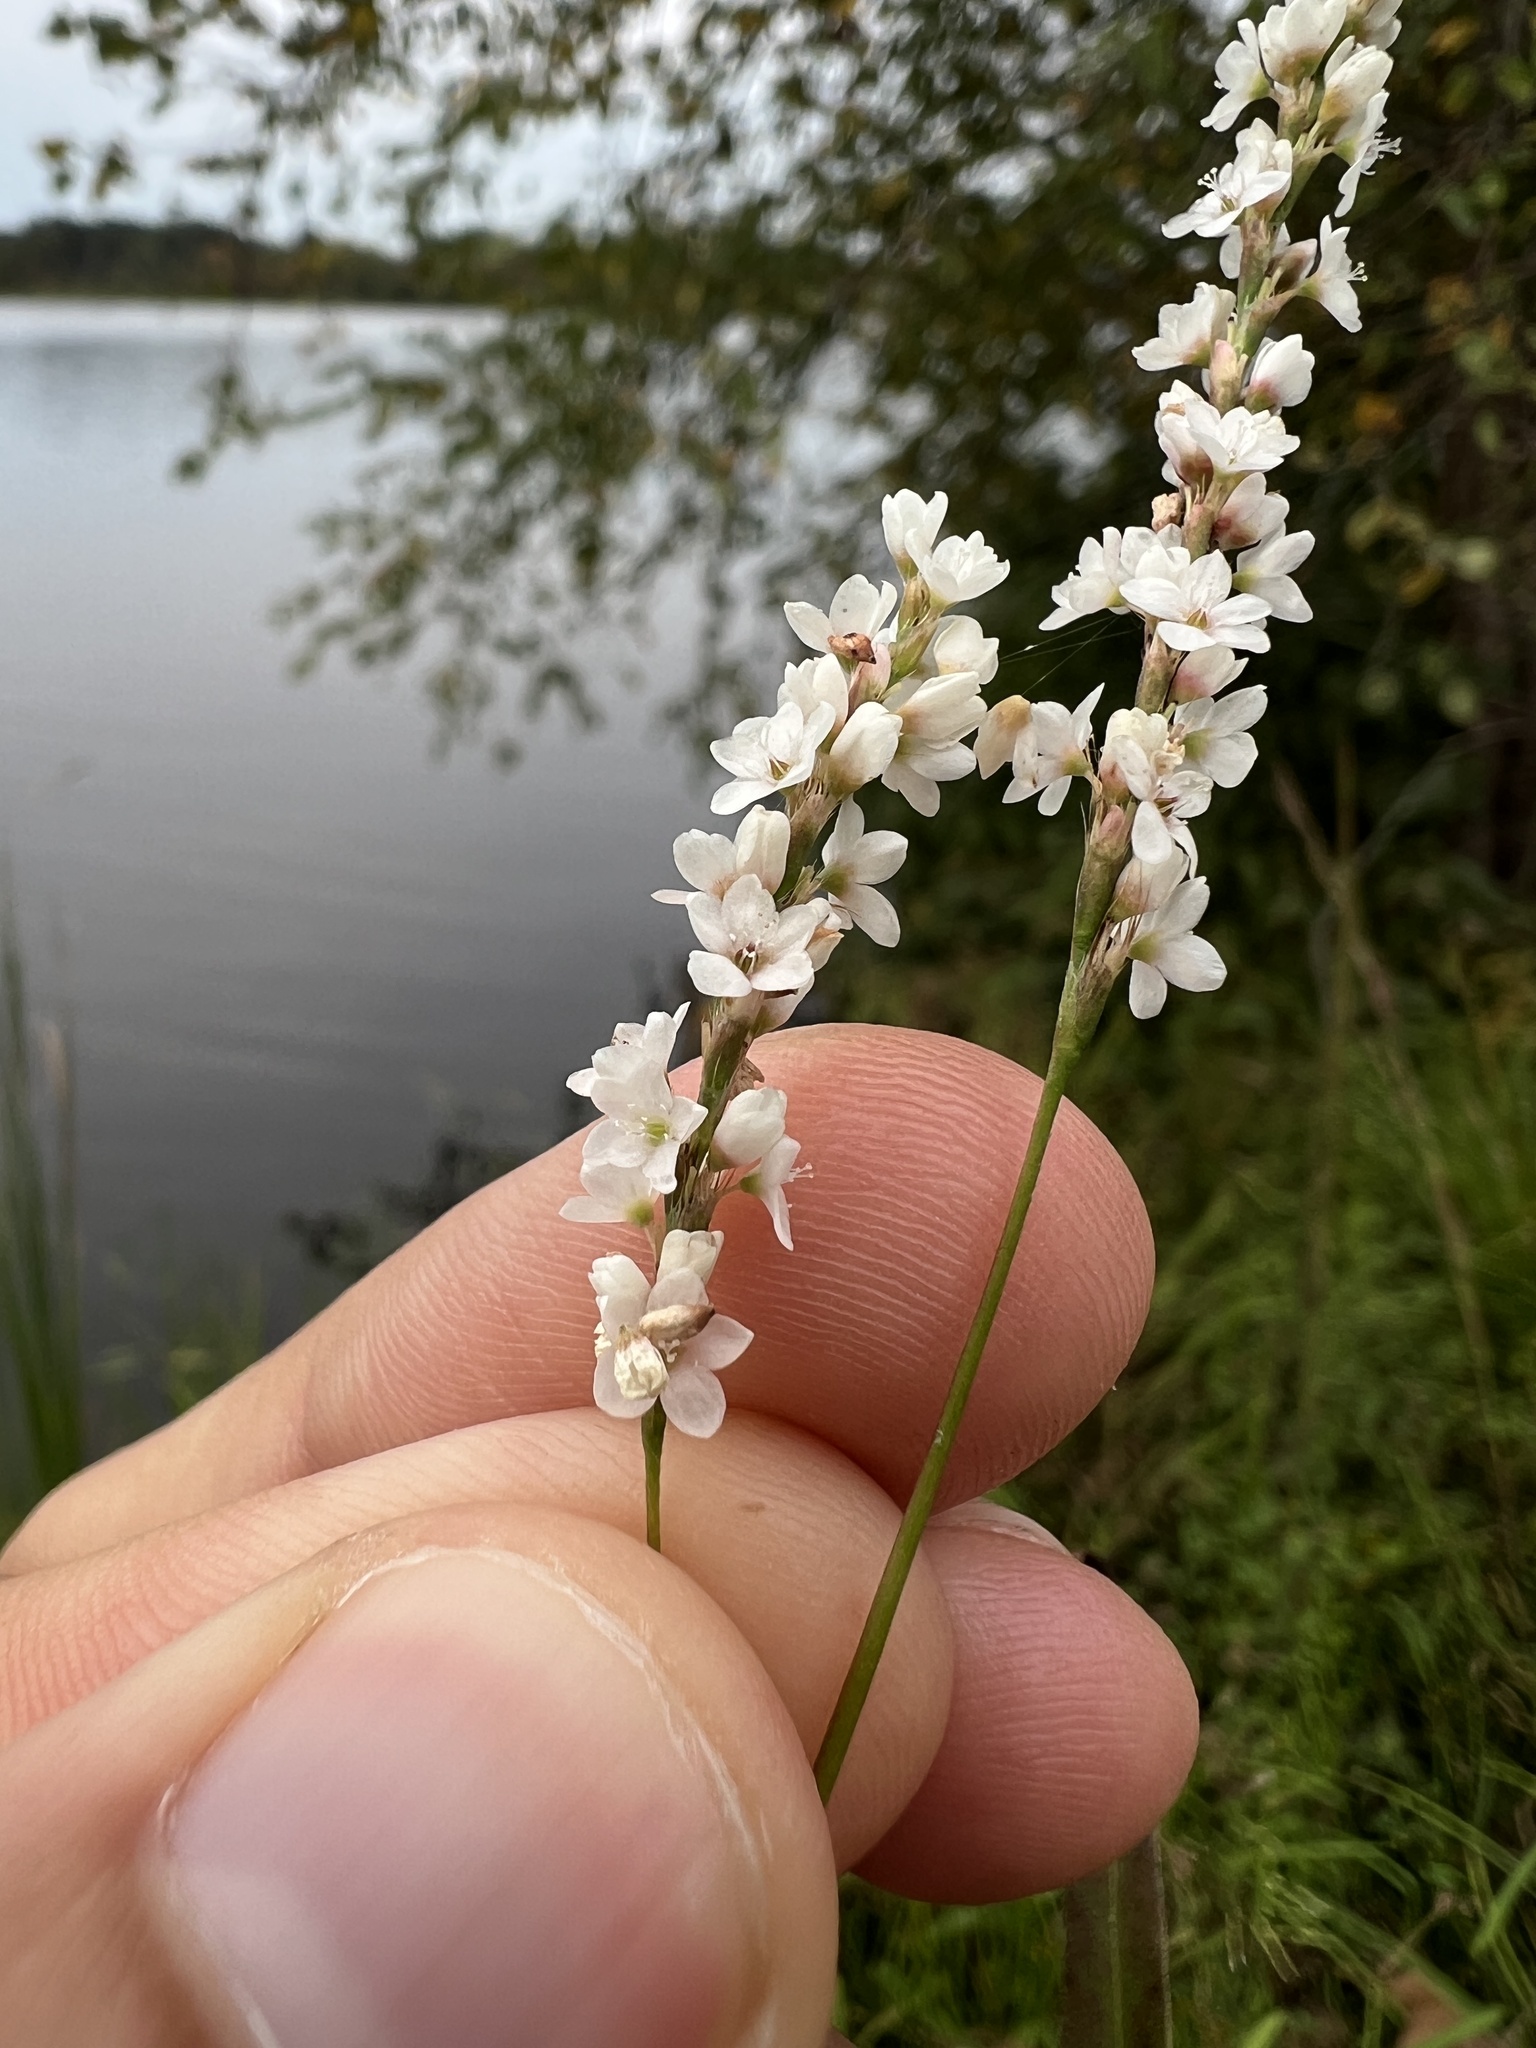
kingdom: Plantae
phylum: Tracheophyta
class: Magnoliopsida
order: Caryophyllales
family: Polygonaceae
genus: Persicaria
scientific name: Persicaria hydropiperoides
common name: Swamp smartweed
